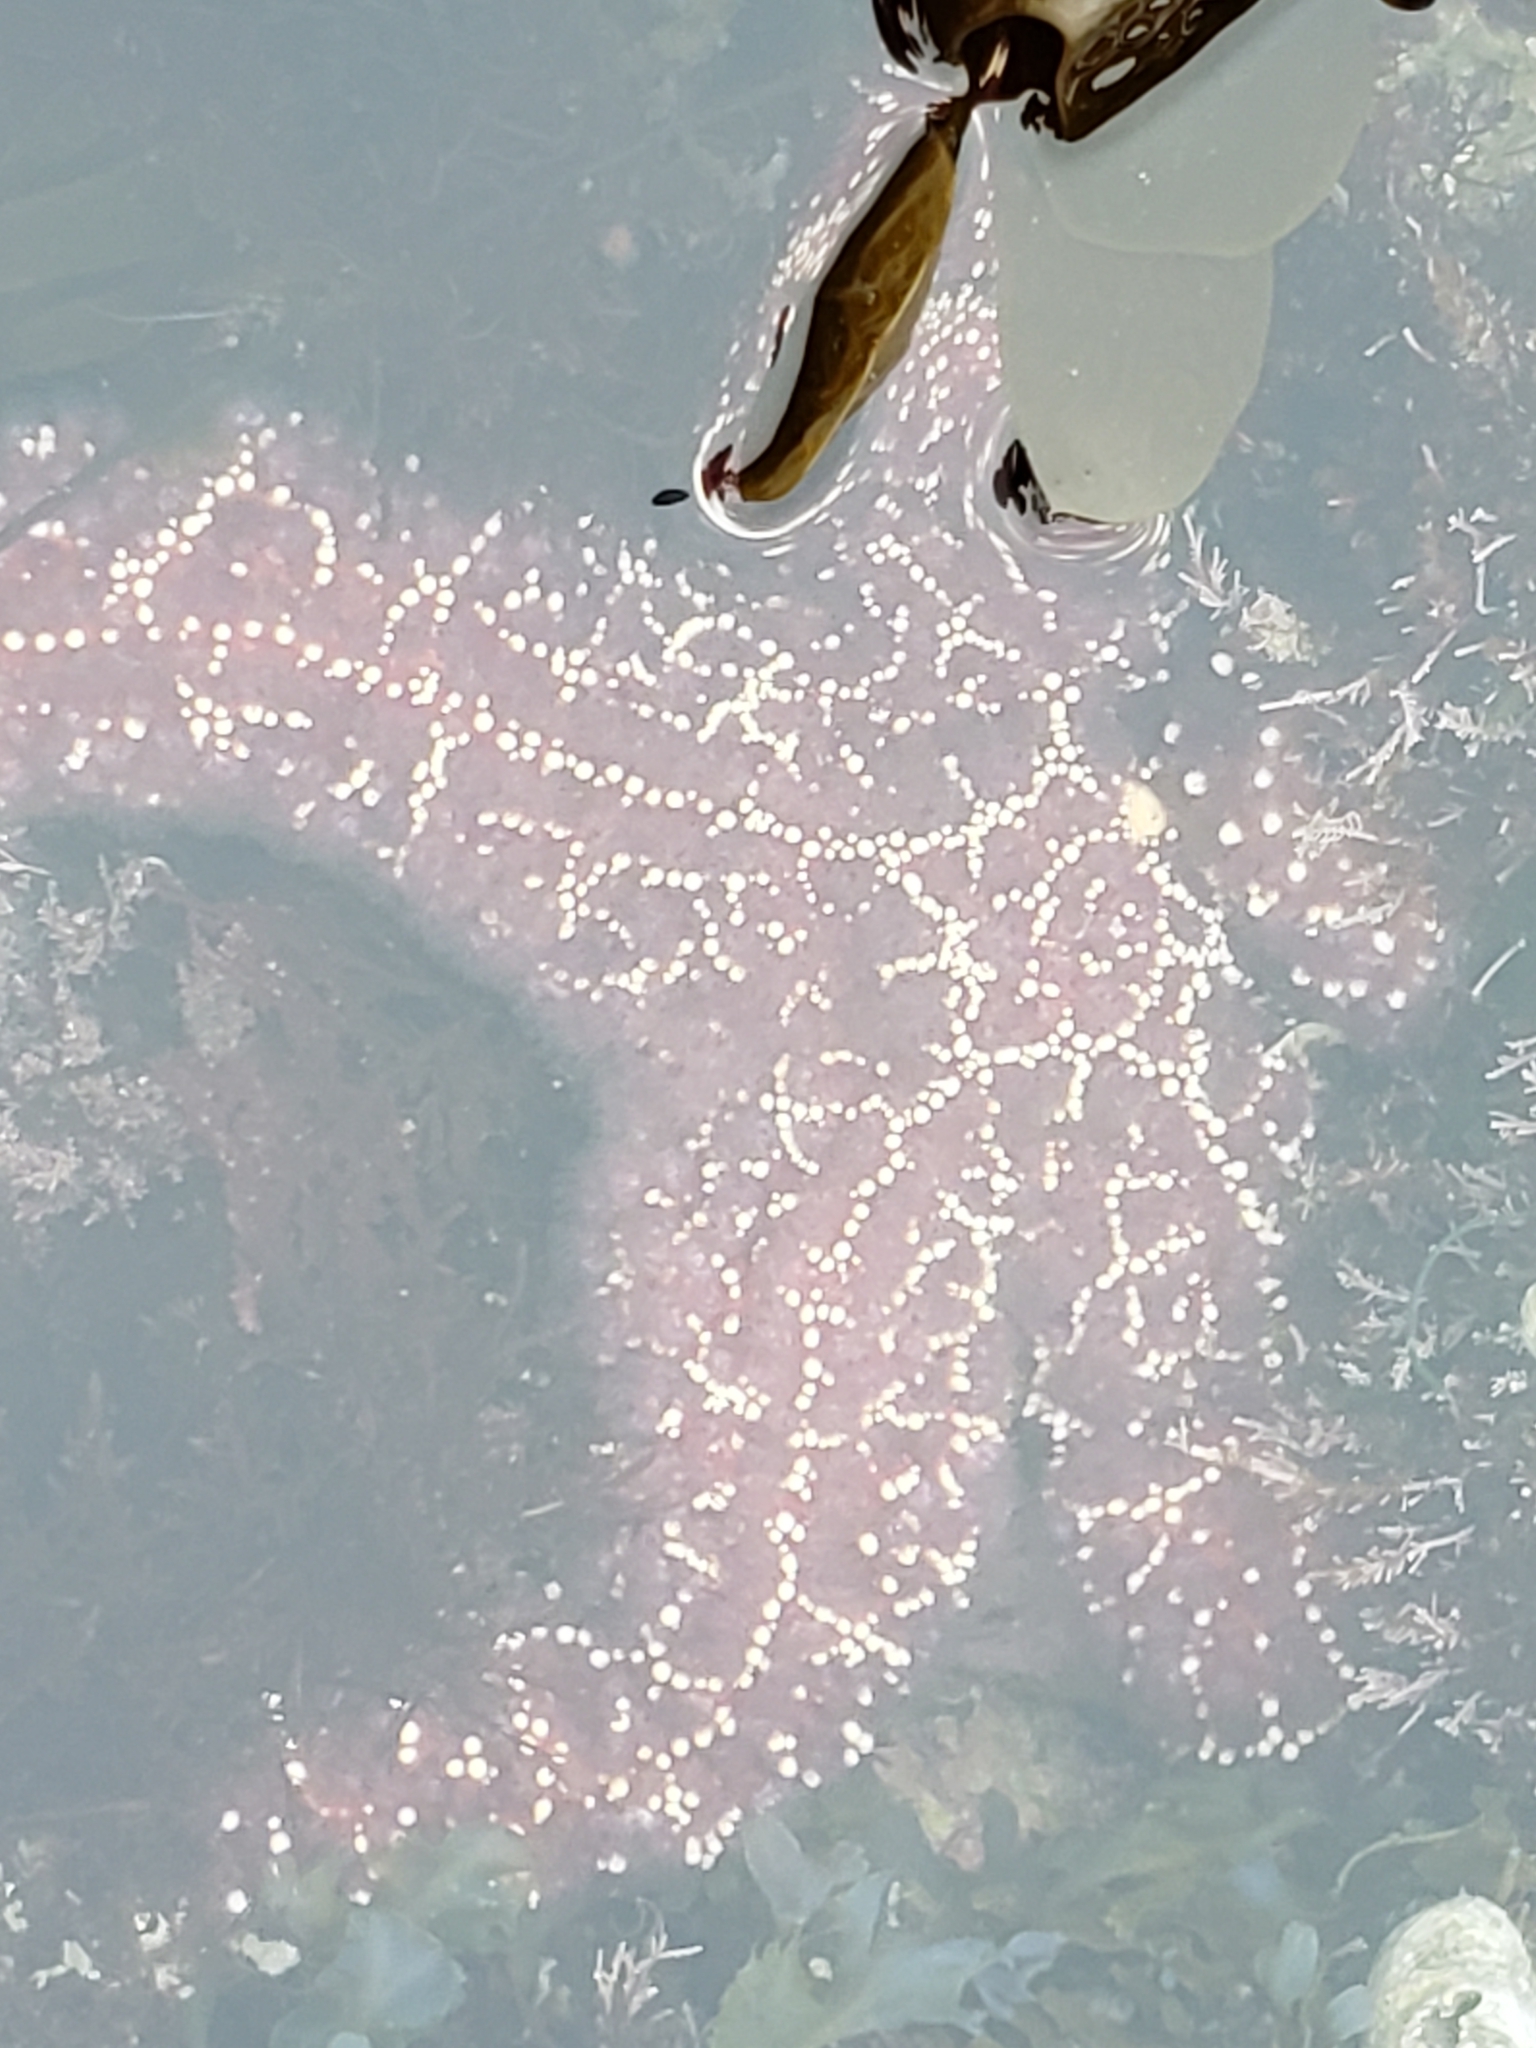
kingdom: Animalia
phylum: Echinodermata
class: Asteroidea
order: Forcipulatida
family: Asteriidae
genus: Pisaster
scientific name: Pisaster ochraceus
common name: Ochre stars
